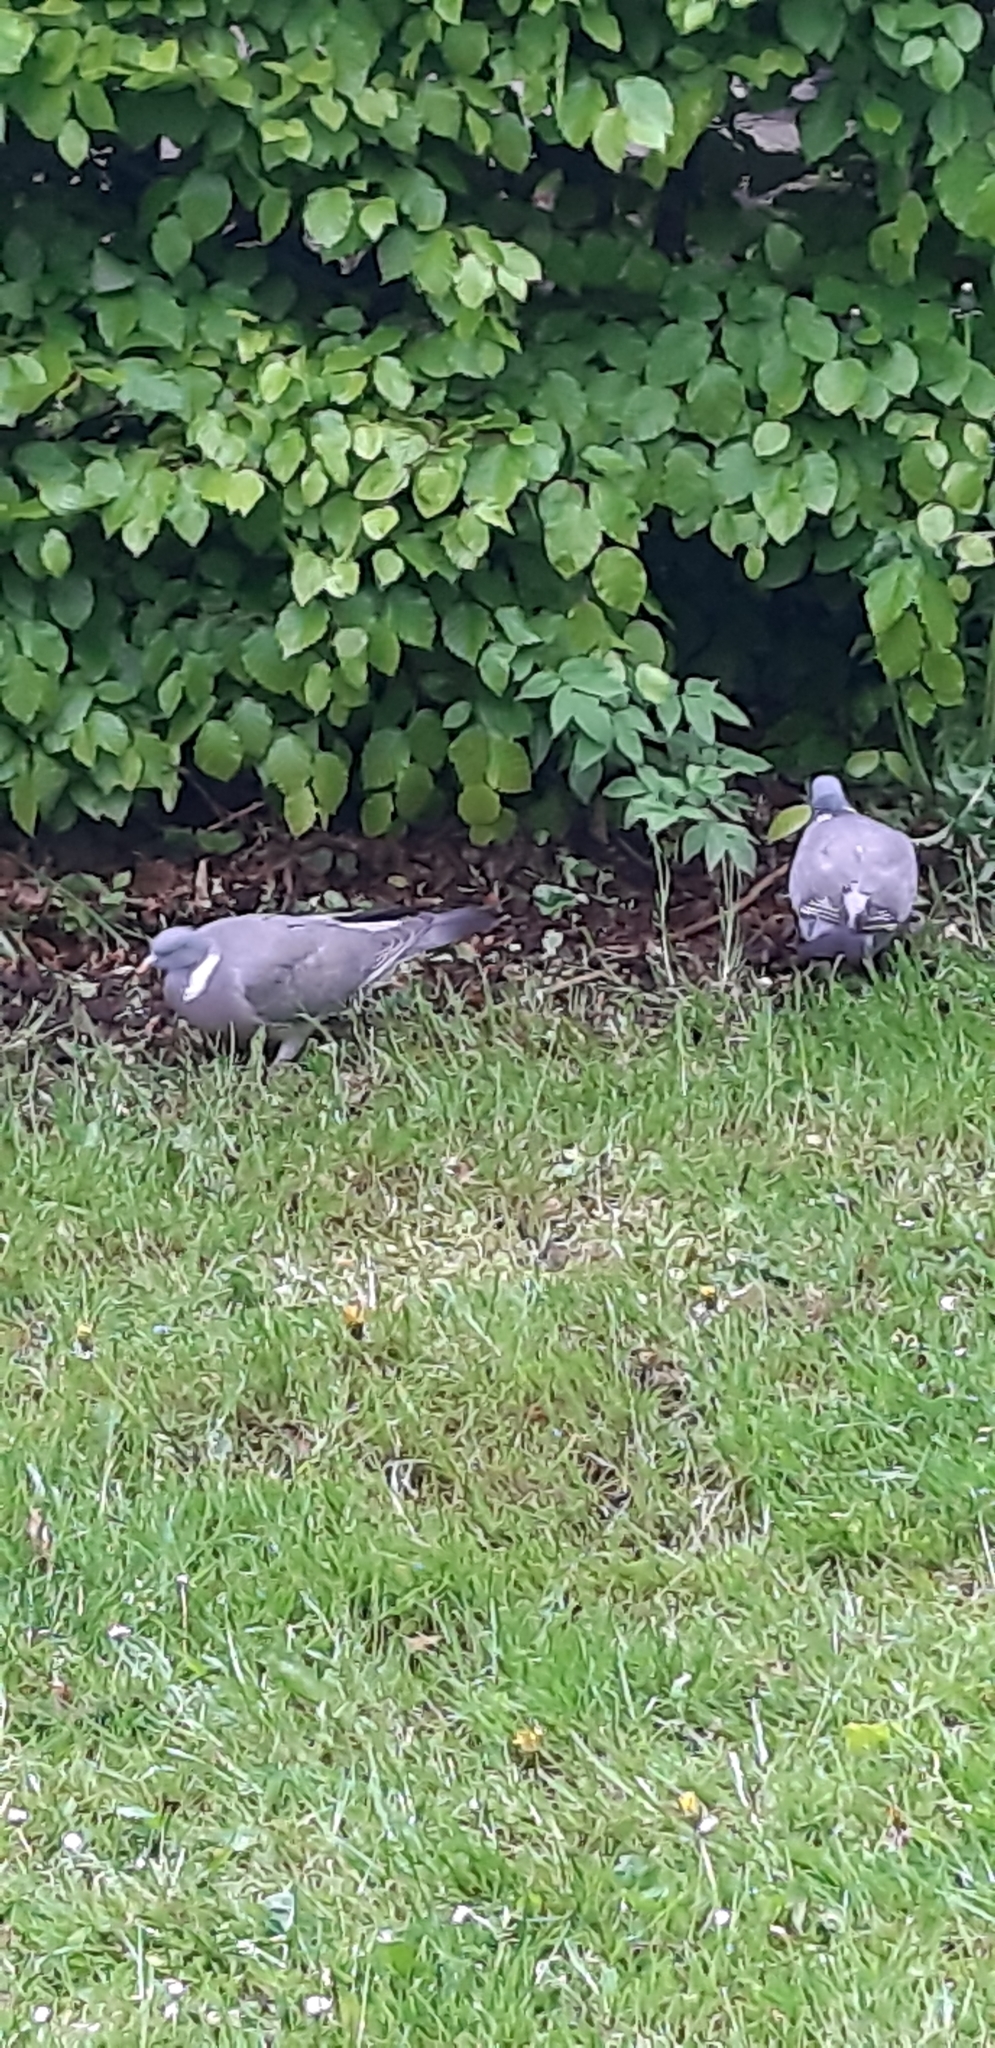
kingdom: Animalia
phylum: Chordata
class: Aves
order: Columbiformes
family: Columbidae
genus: Columba
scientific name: Columba palumbus
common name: Common wood pigeon
